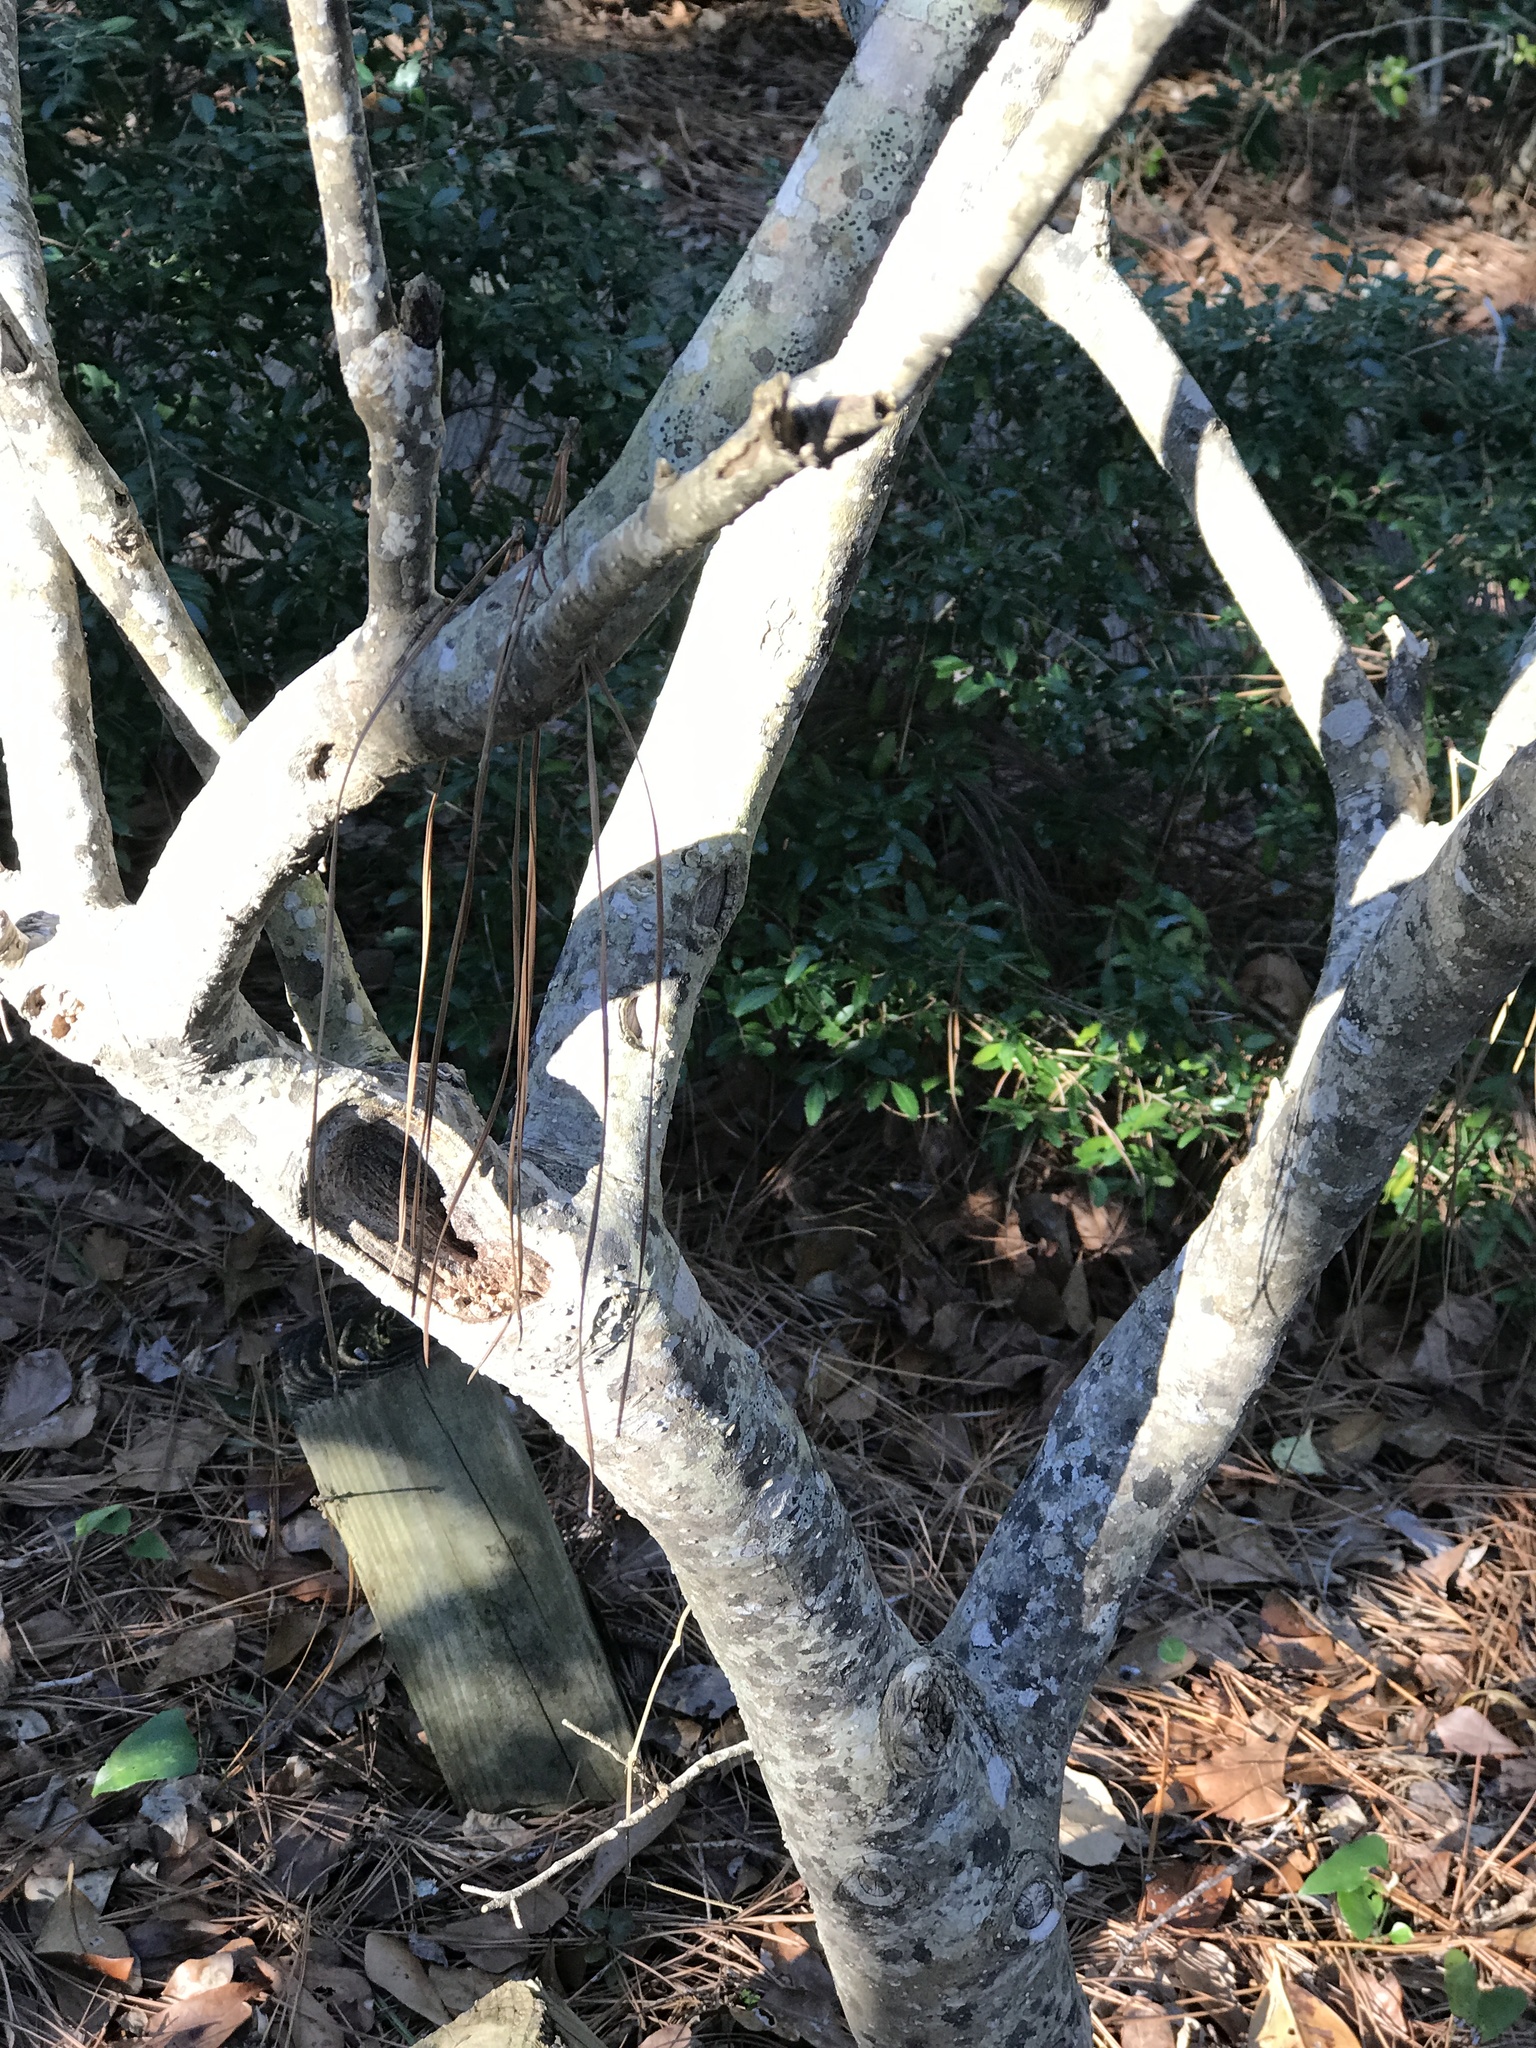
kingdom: Plantae
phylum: Tracheophyta
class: Magnoliopsida
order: Lamiales
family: Oleaceae
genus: Ligustrum
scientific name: Ligustrum japonicum
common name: Japanese privet
